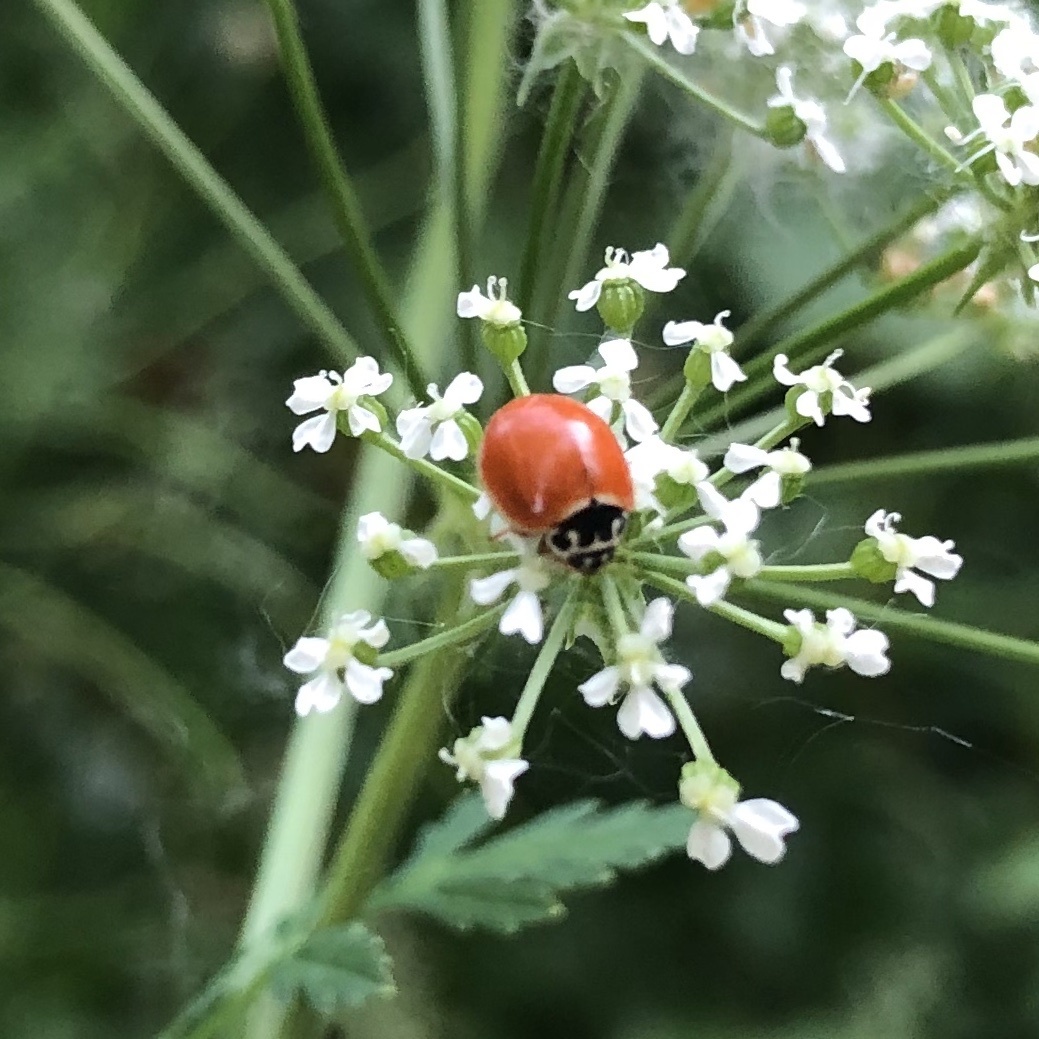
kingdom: Animalia
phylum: Arthropoda
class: Insecta
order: Coleoptera
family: Coccinellidae
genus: Cycloneda
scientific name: Cycloneda munda
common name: Polished lady beetle
